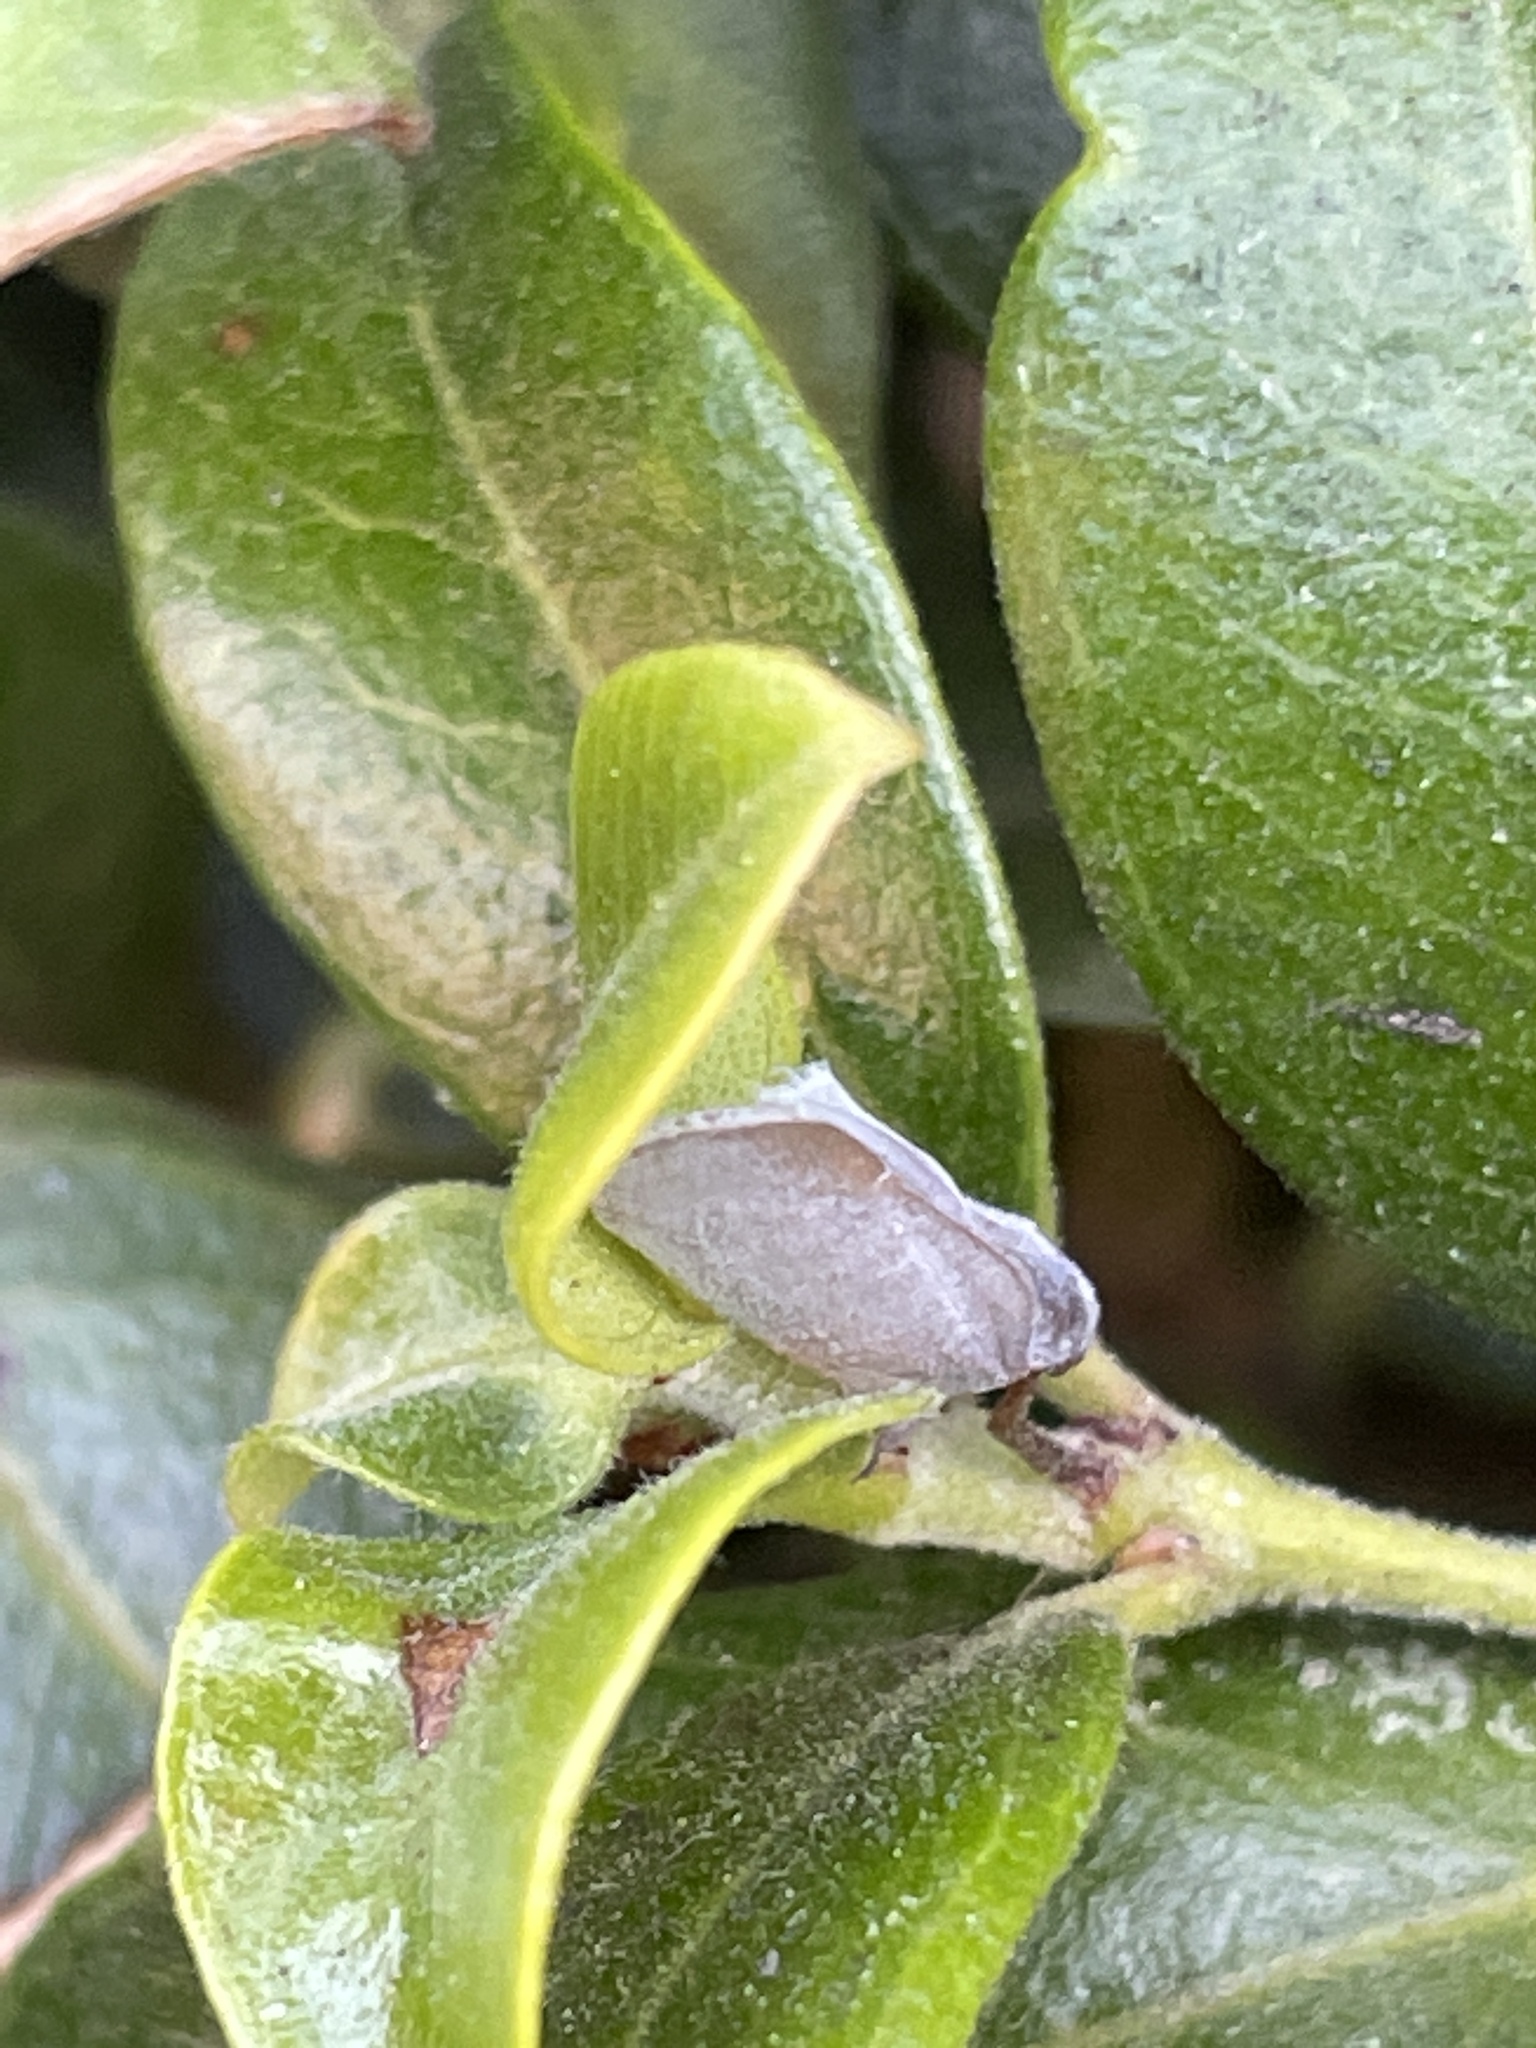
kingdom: Animalia
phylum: Arthropoda
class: Insecta
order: Hemiptera
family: Flatidae
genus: Anzora
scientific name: Anzora unicolor
